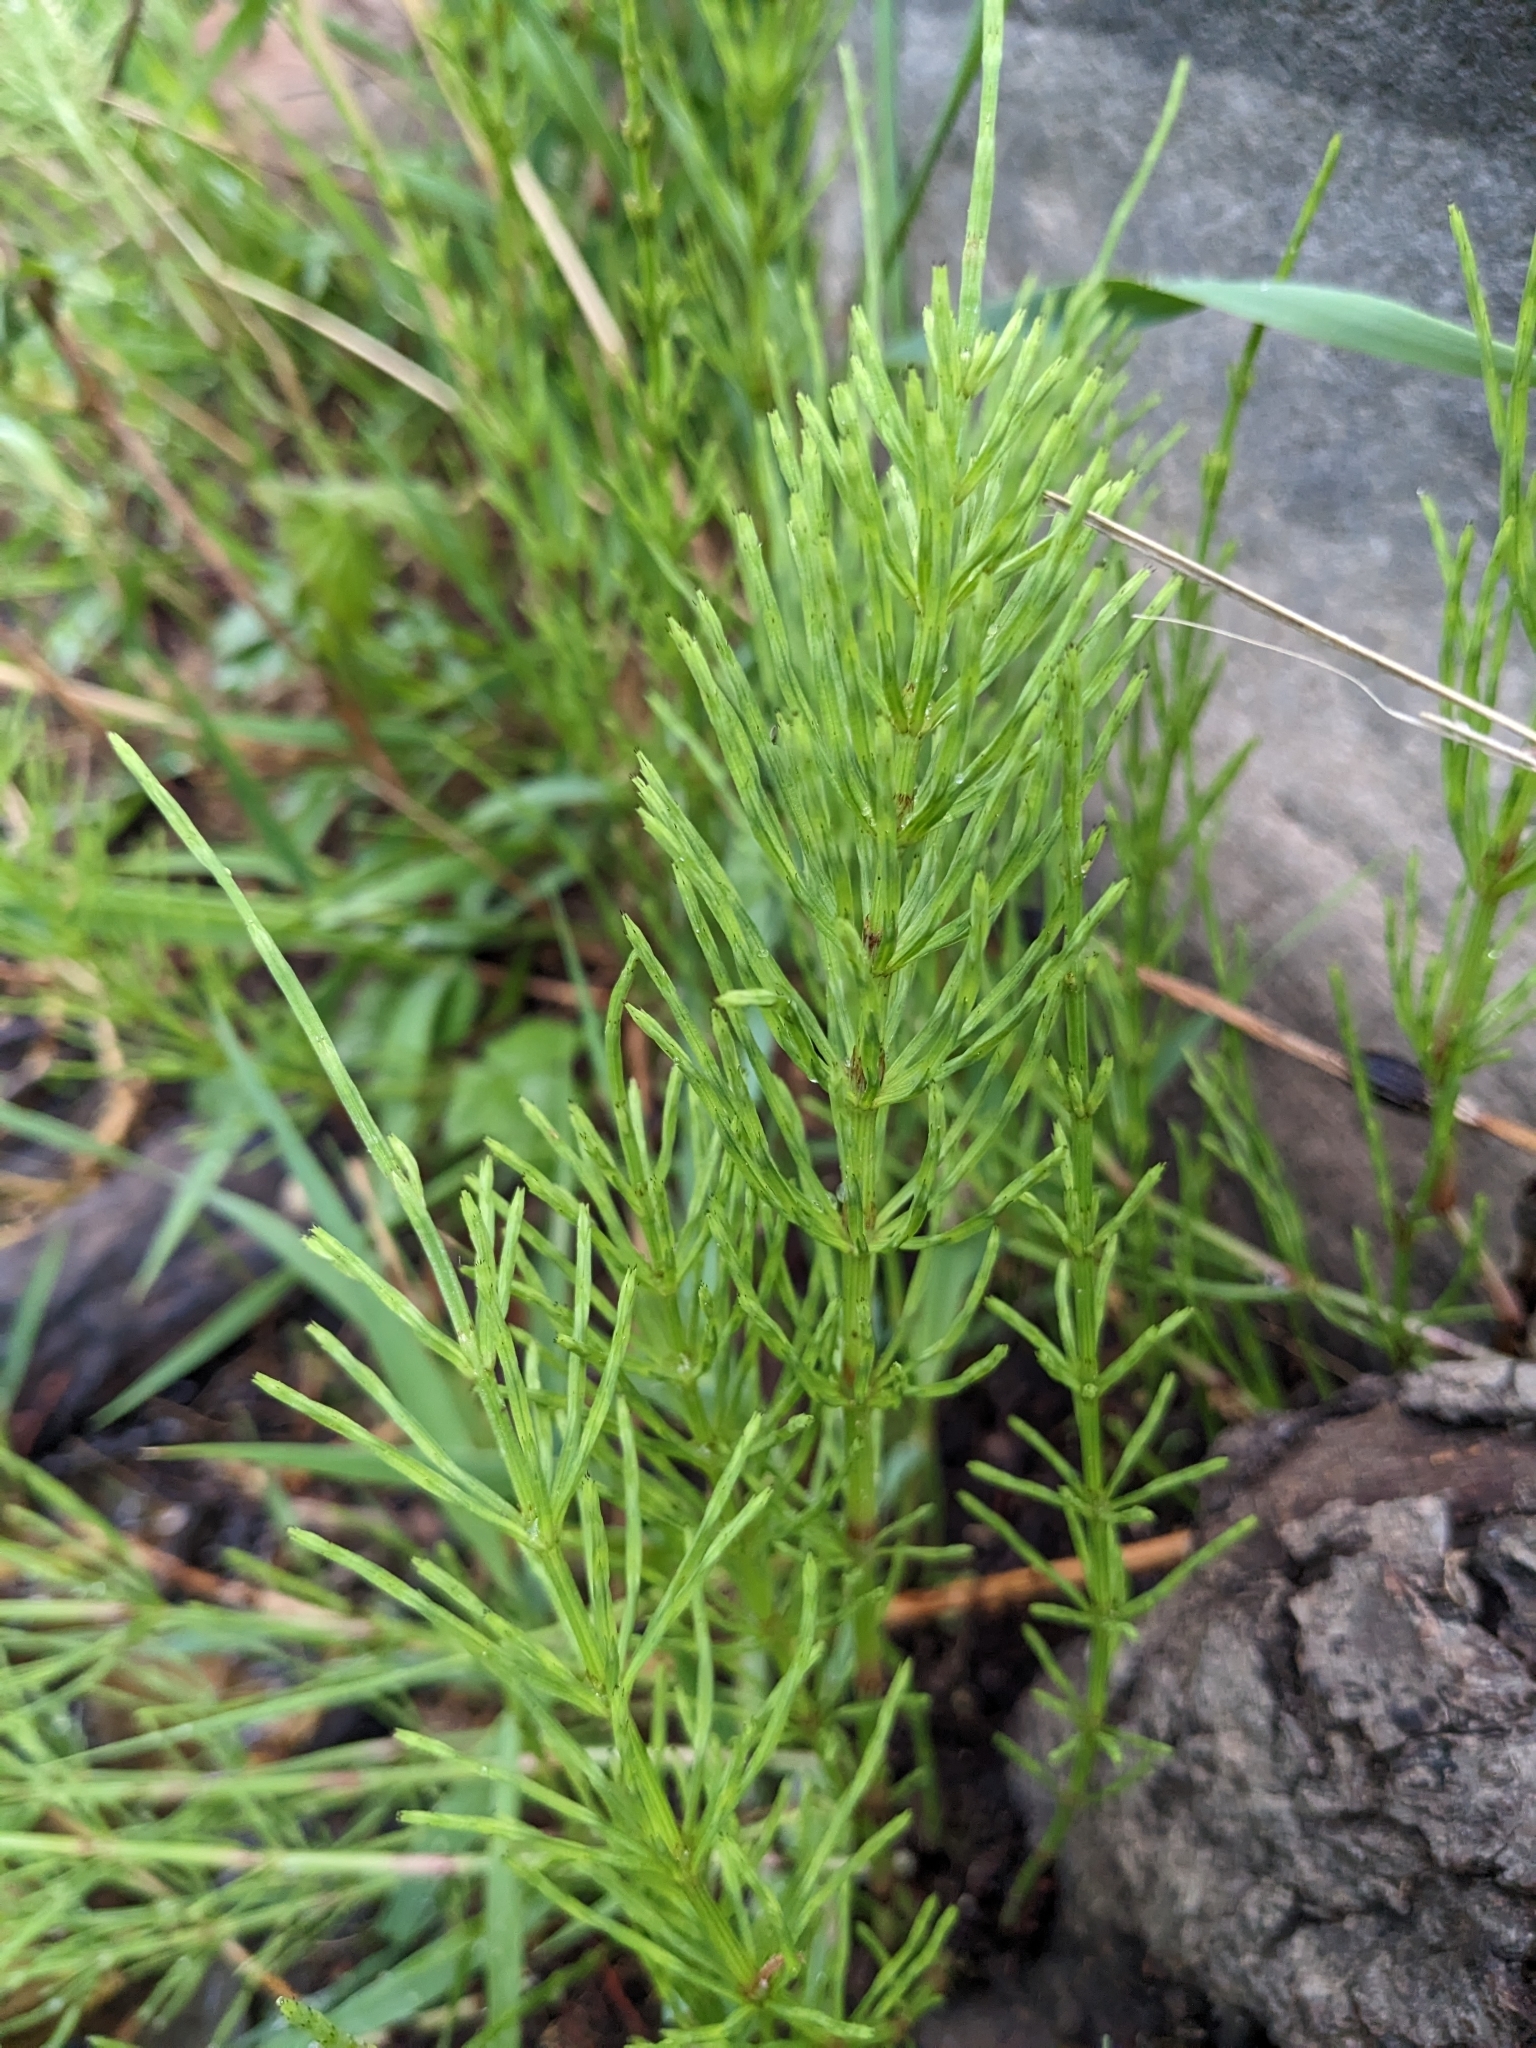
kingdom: Plantae
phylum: Tracheophyta
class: Polypodiopsida
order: Equisetales
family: Equisetaceae
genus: Equisetum
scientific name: Equisetum arvense
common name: Field horsetail
